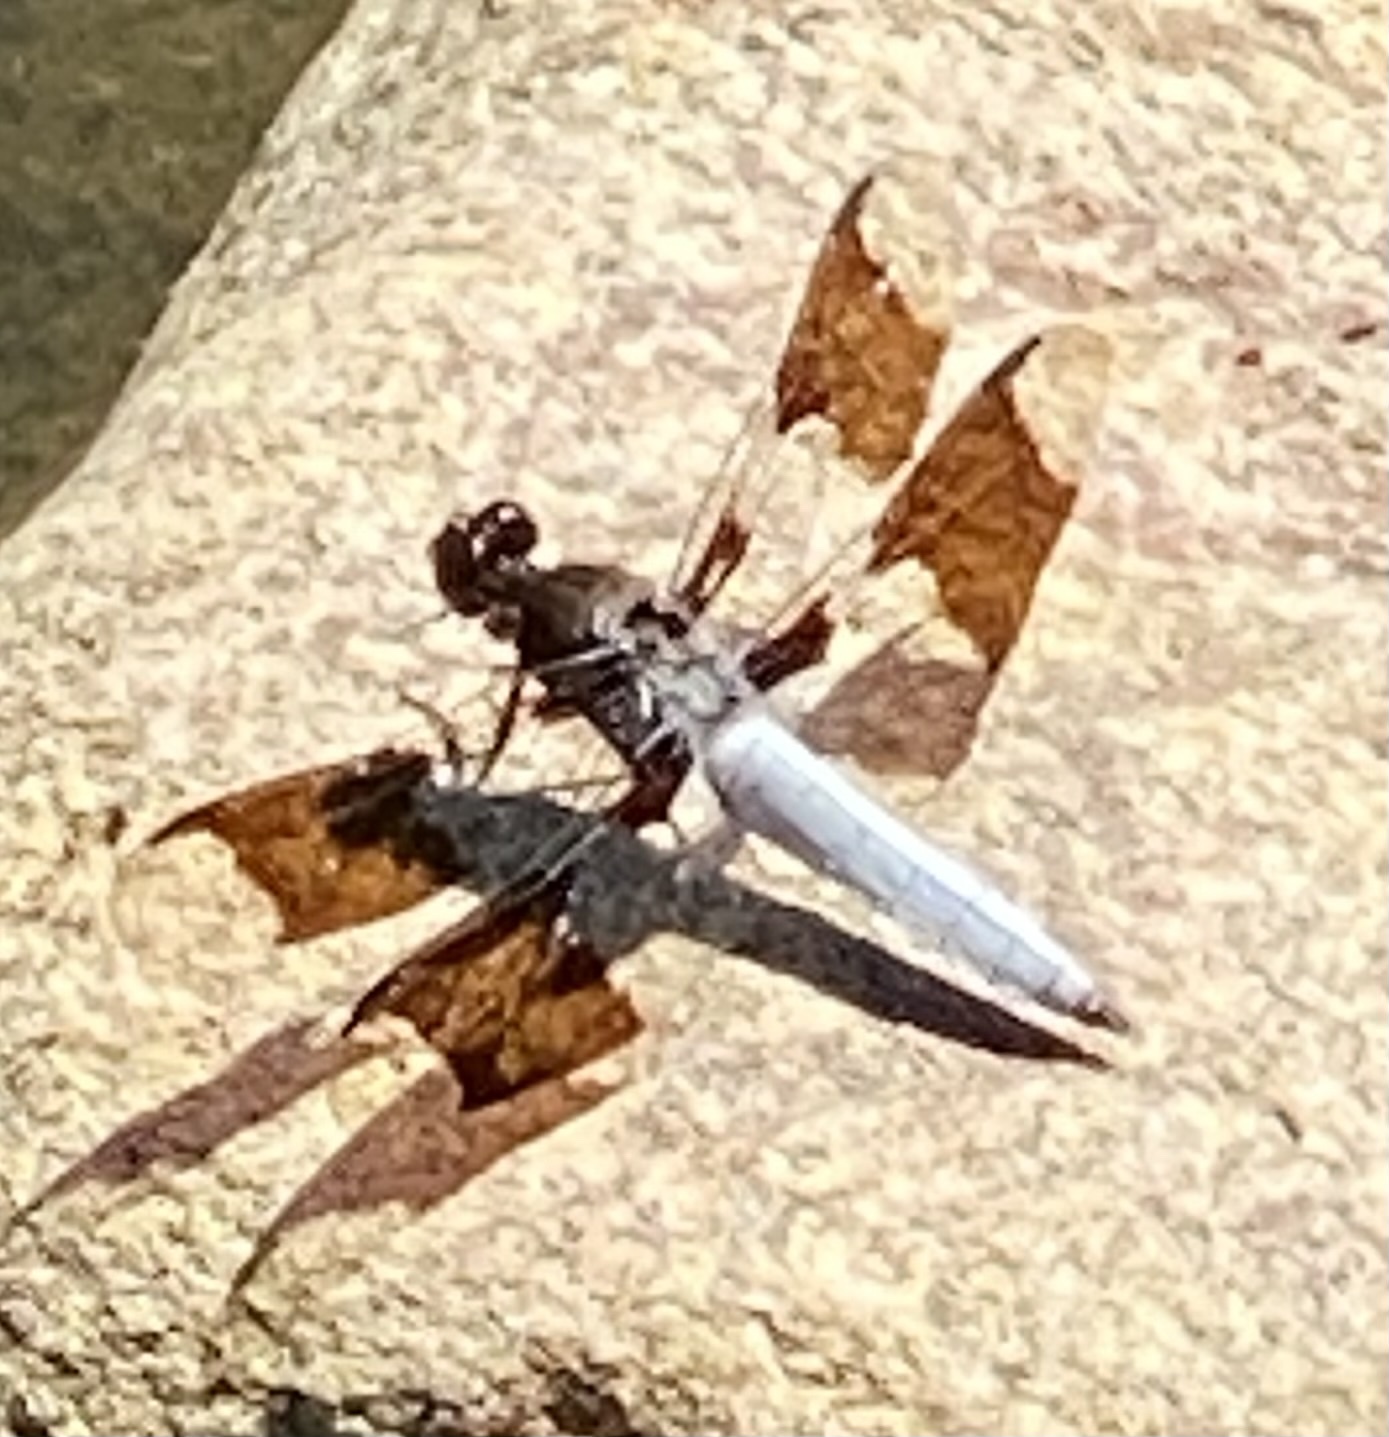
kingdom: Animalia
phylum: Arthropoda
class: Insecta
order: Odonata
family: Libellulidae
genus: Plathemis
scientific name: Plathemis lydia
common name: Common whitetail
